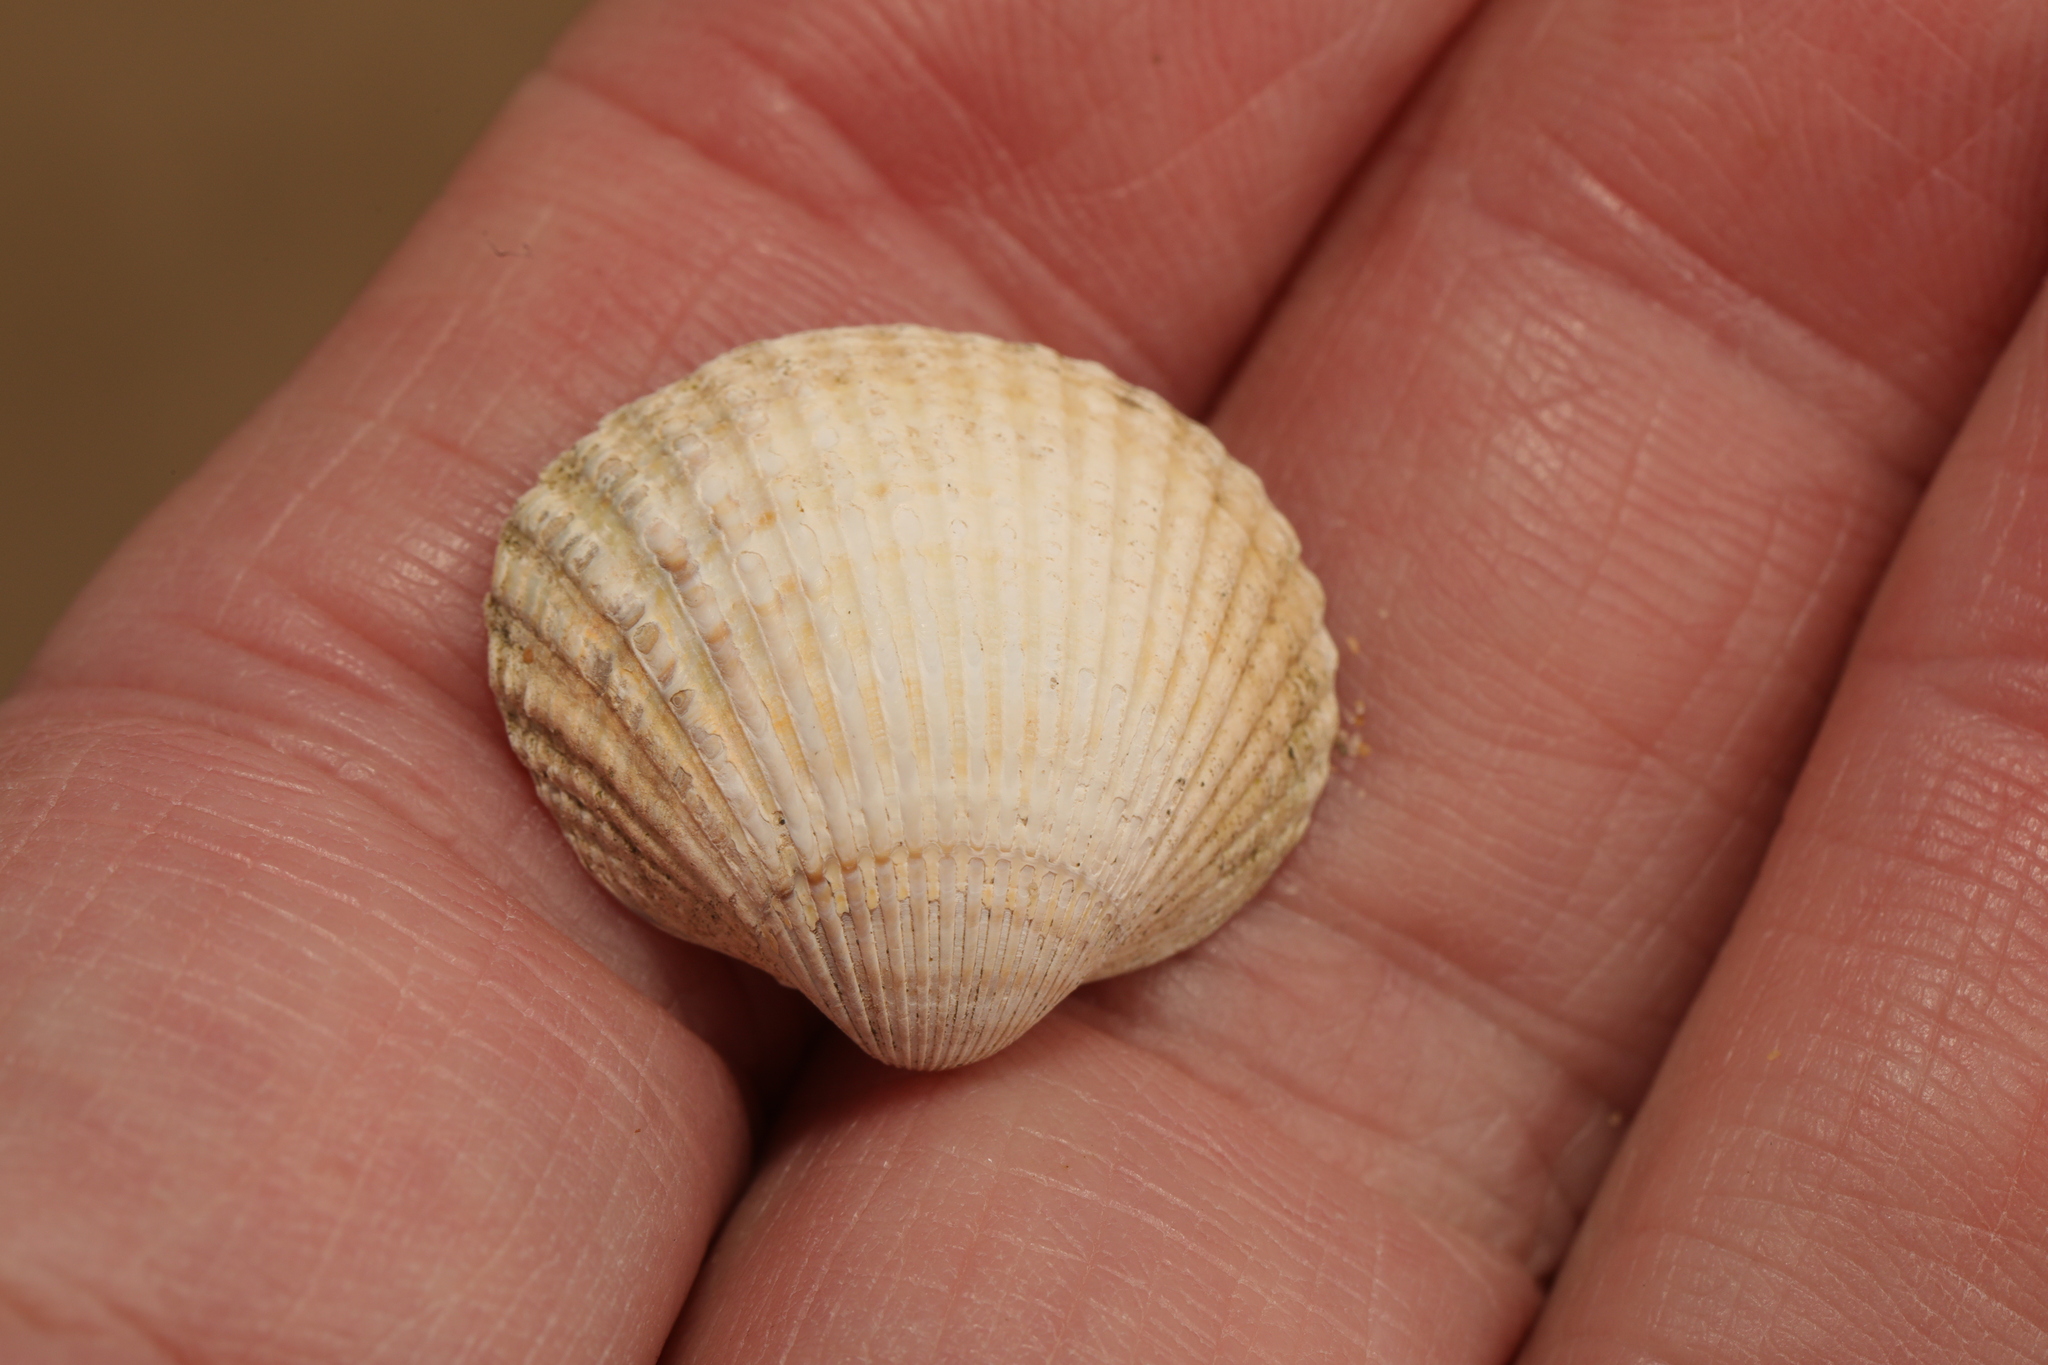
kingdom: Animalia
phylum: Mollusca
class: Bivalvia
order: Cardiida
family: Cardiidae
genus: Cerastoderma
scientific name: Cerastoderma edule
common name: Common cockle
